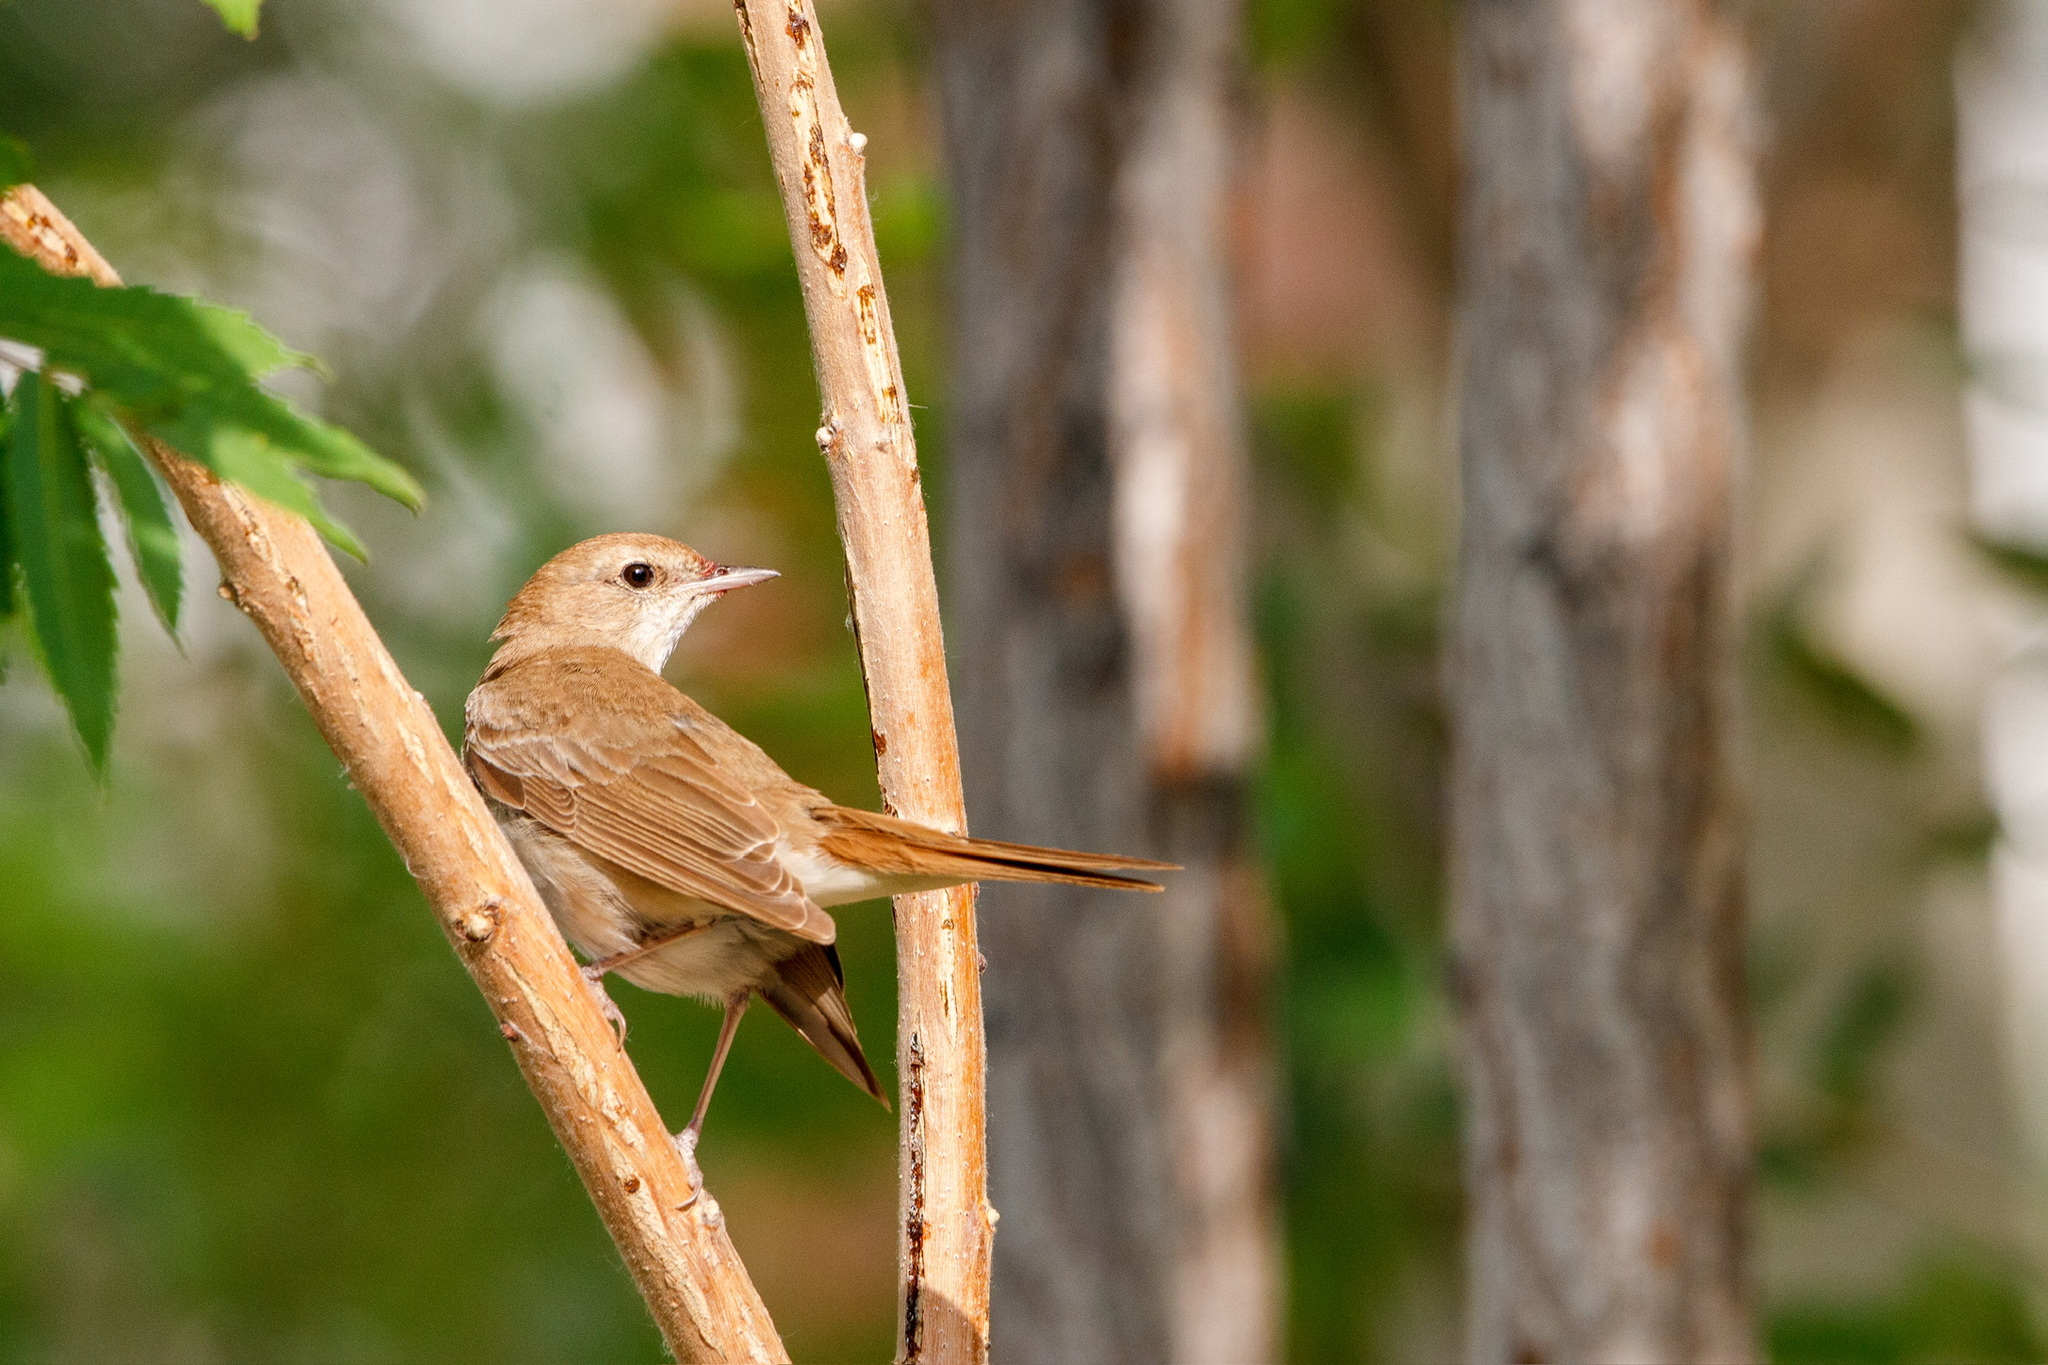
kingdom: Animalia
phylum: Chordata
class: Aves
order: Passeriformes
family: Muscicapidae
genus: Luscinia
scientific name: Luscinia megarhynchos
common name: Common nightingale
